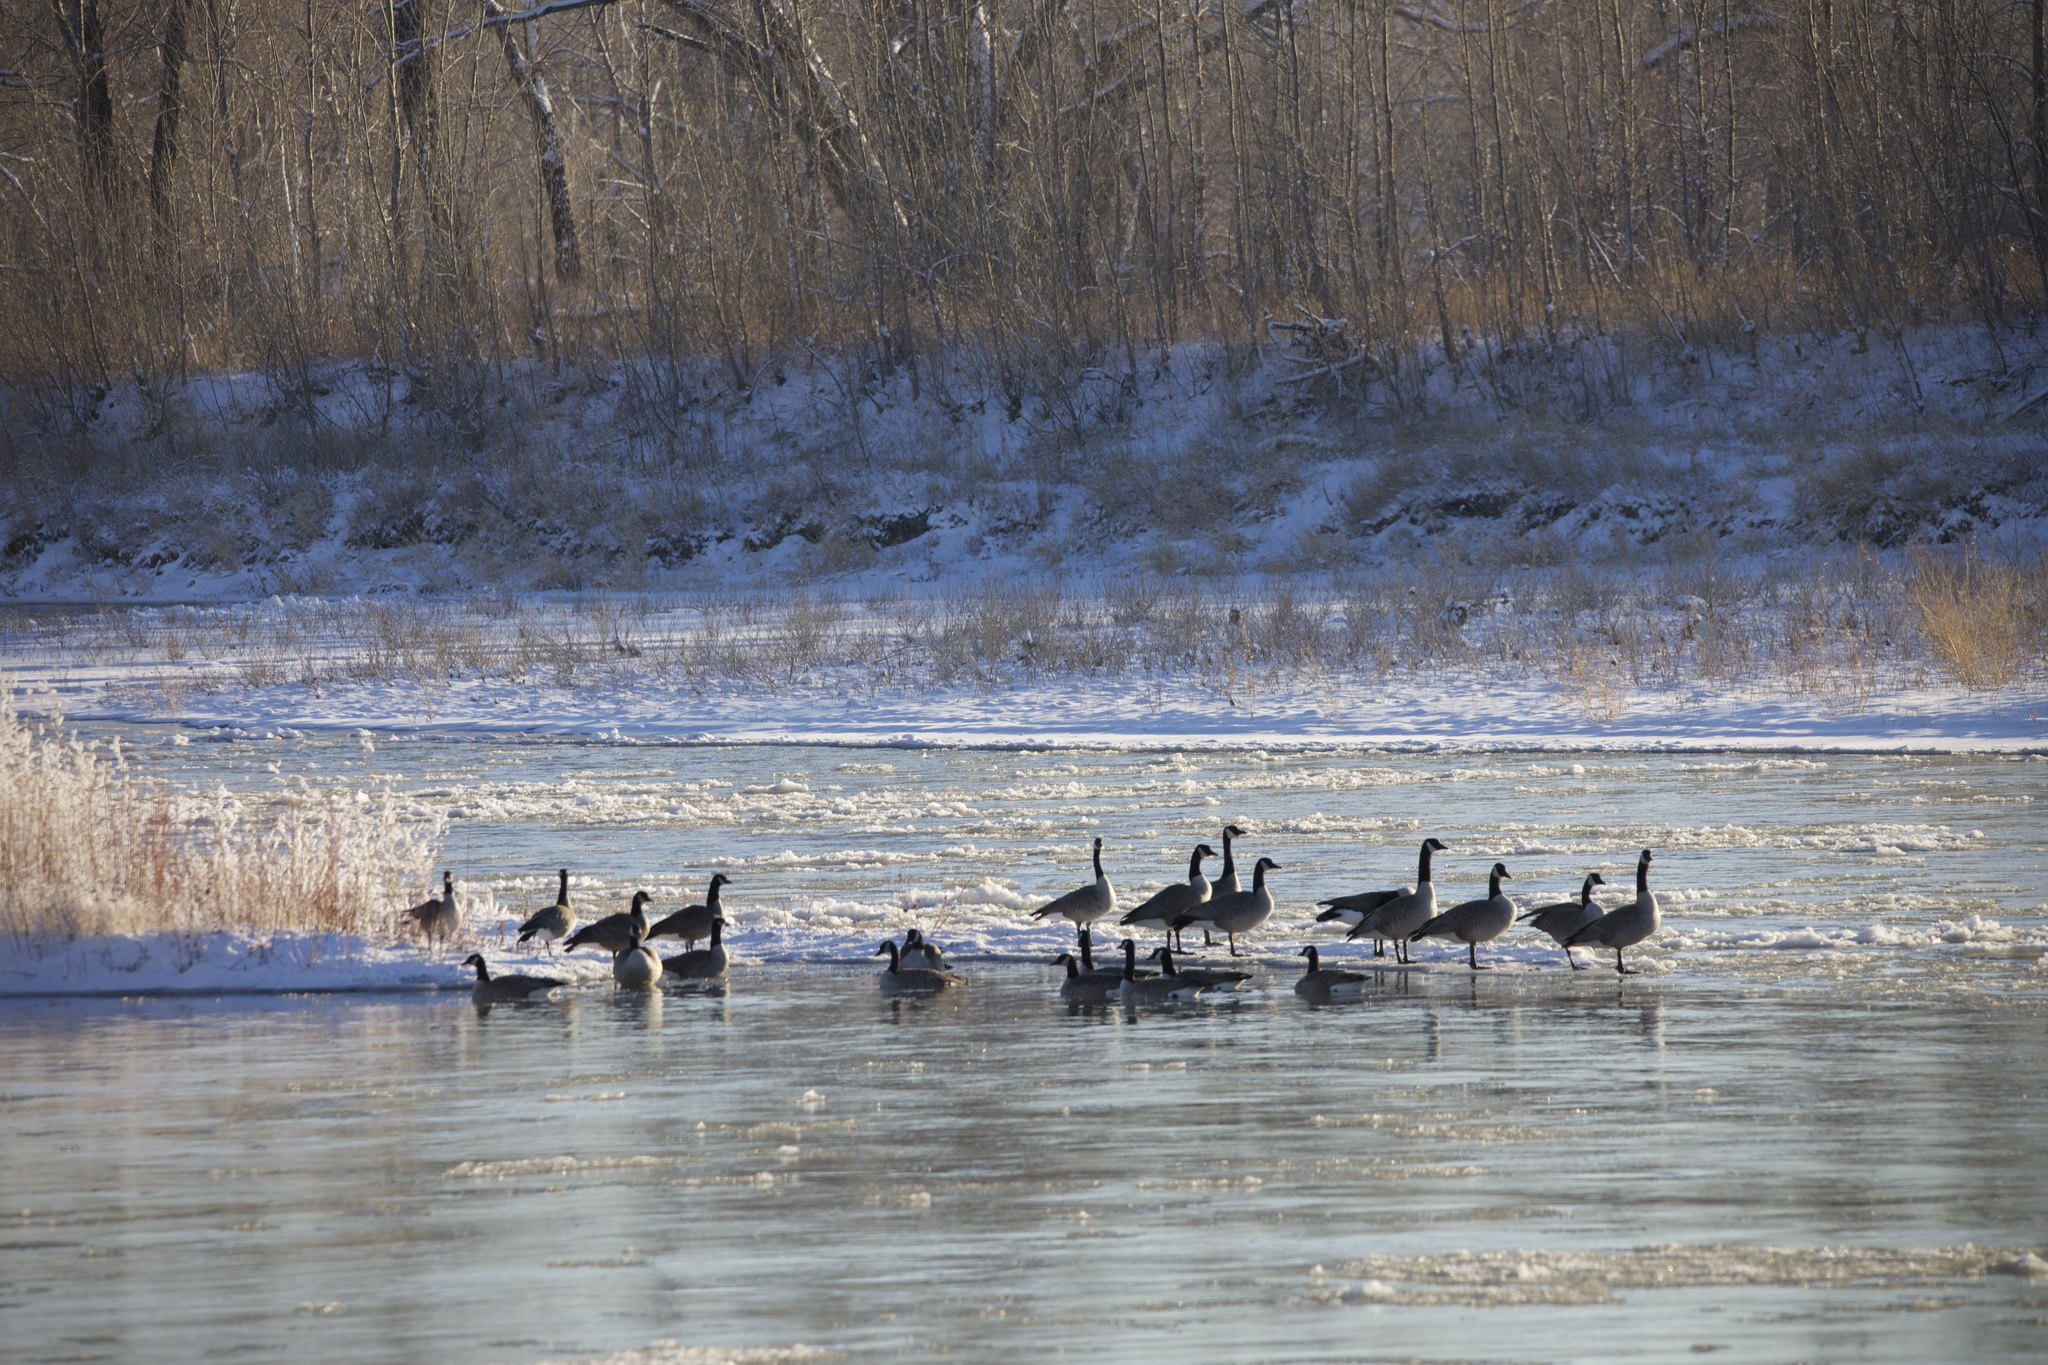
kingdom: Animalia
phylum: Chordata
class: Aves
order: Anseriformes
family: Anatidae
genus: Branta
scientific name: Branta canadensis
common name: Canada goose
